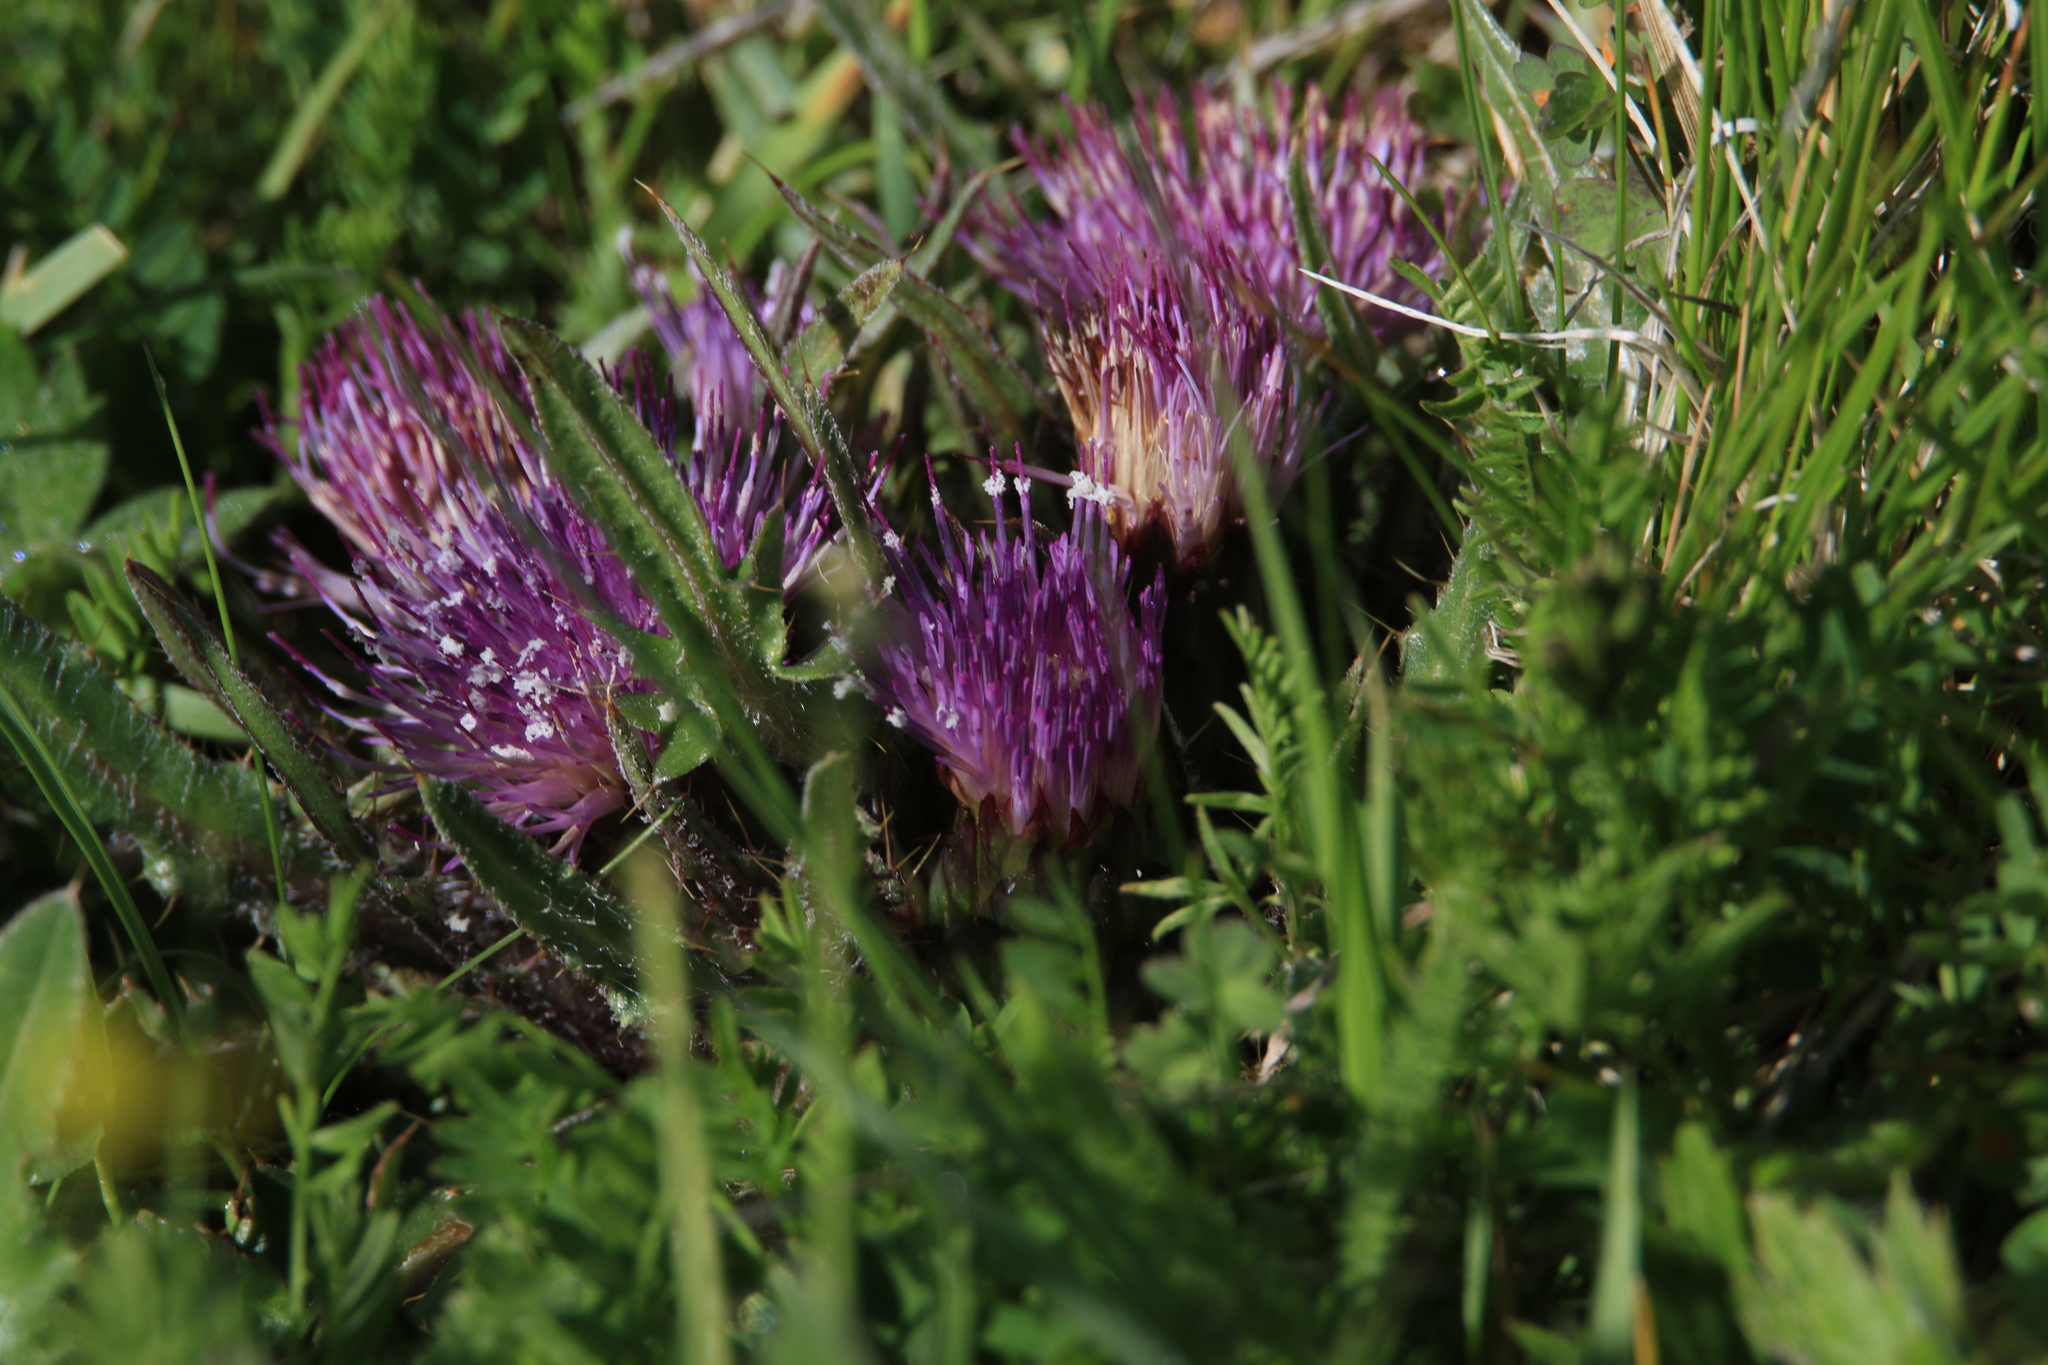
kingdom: Plantae
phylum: Tracheophyta
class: Magnoliopsida
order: Asterales
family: Asteraceae
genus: Cirsium
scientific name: Cirsium esculentum
